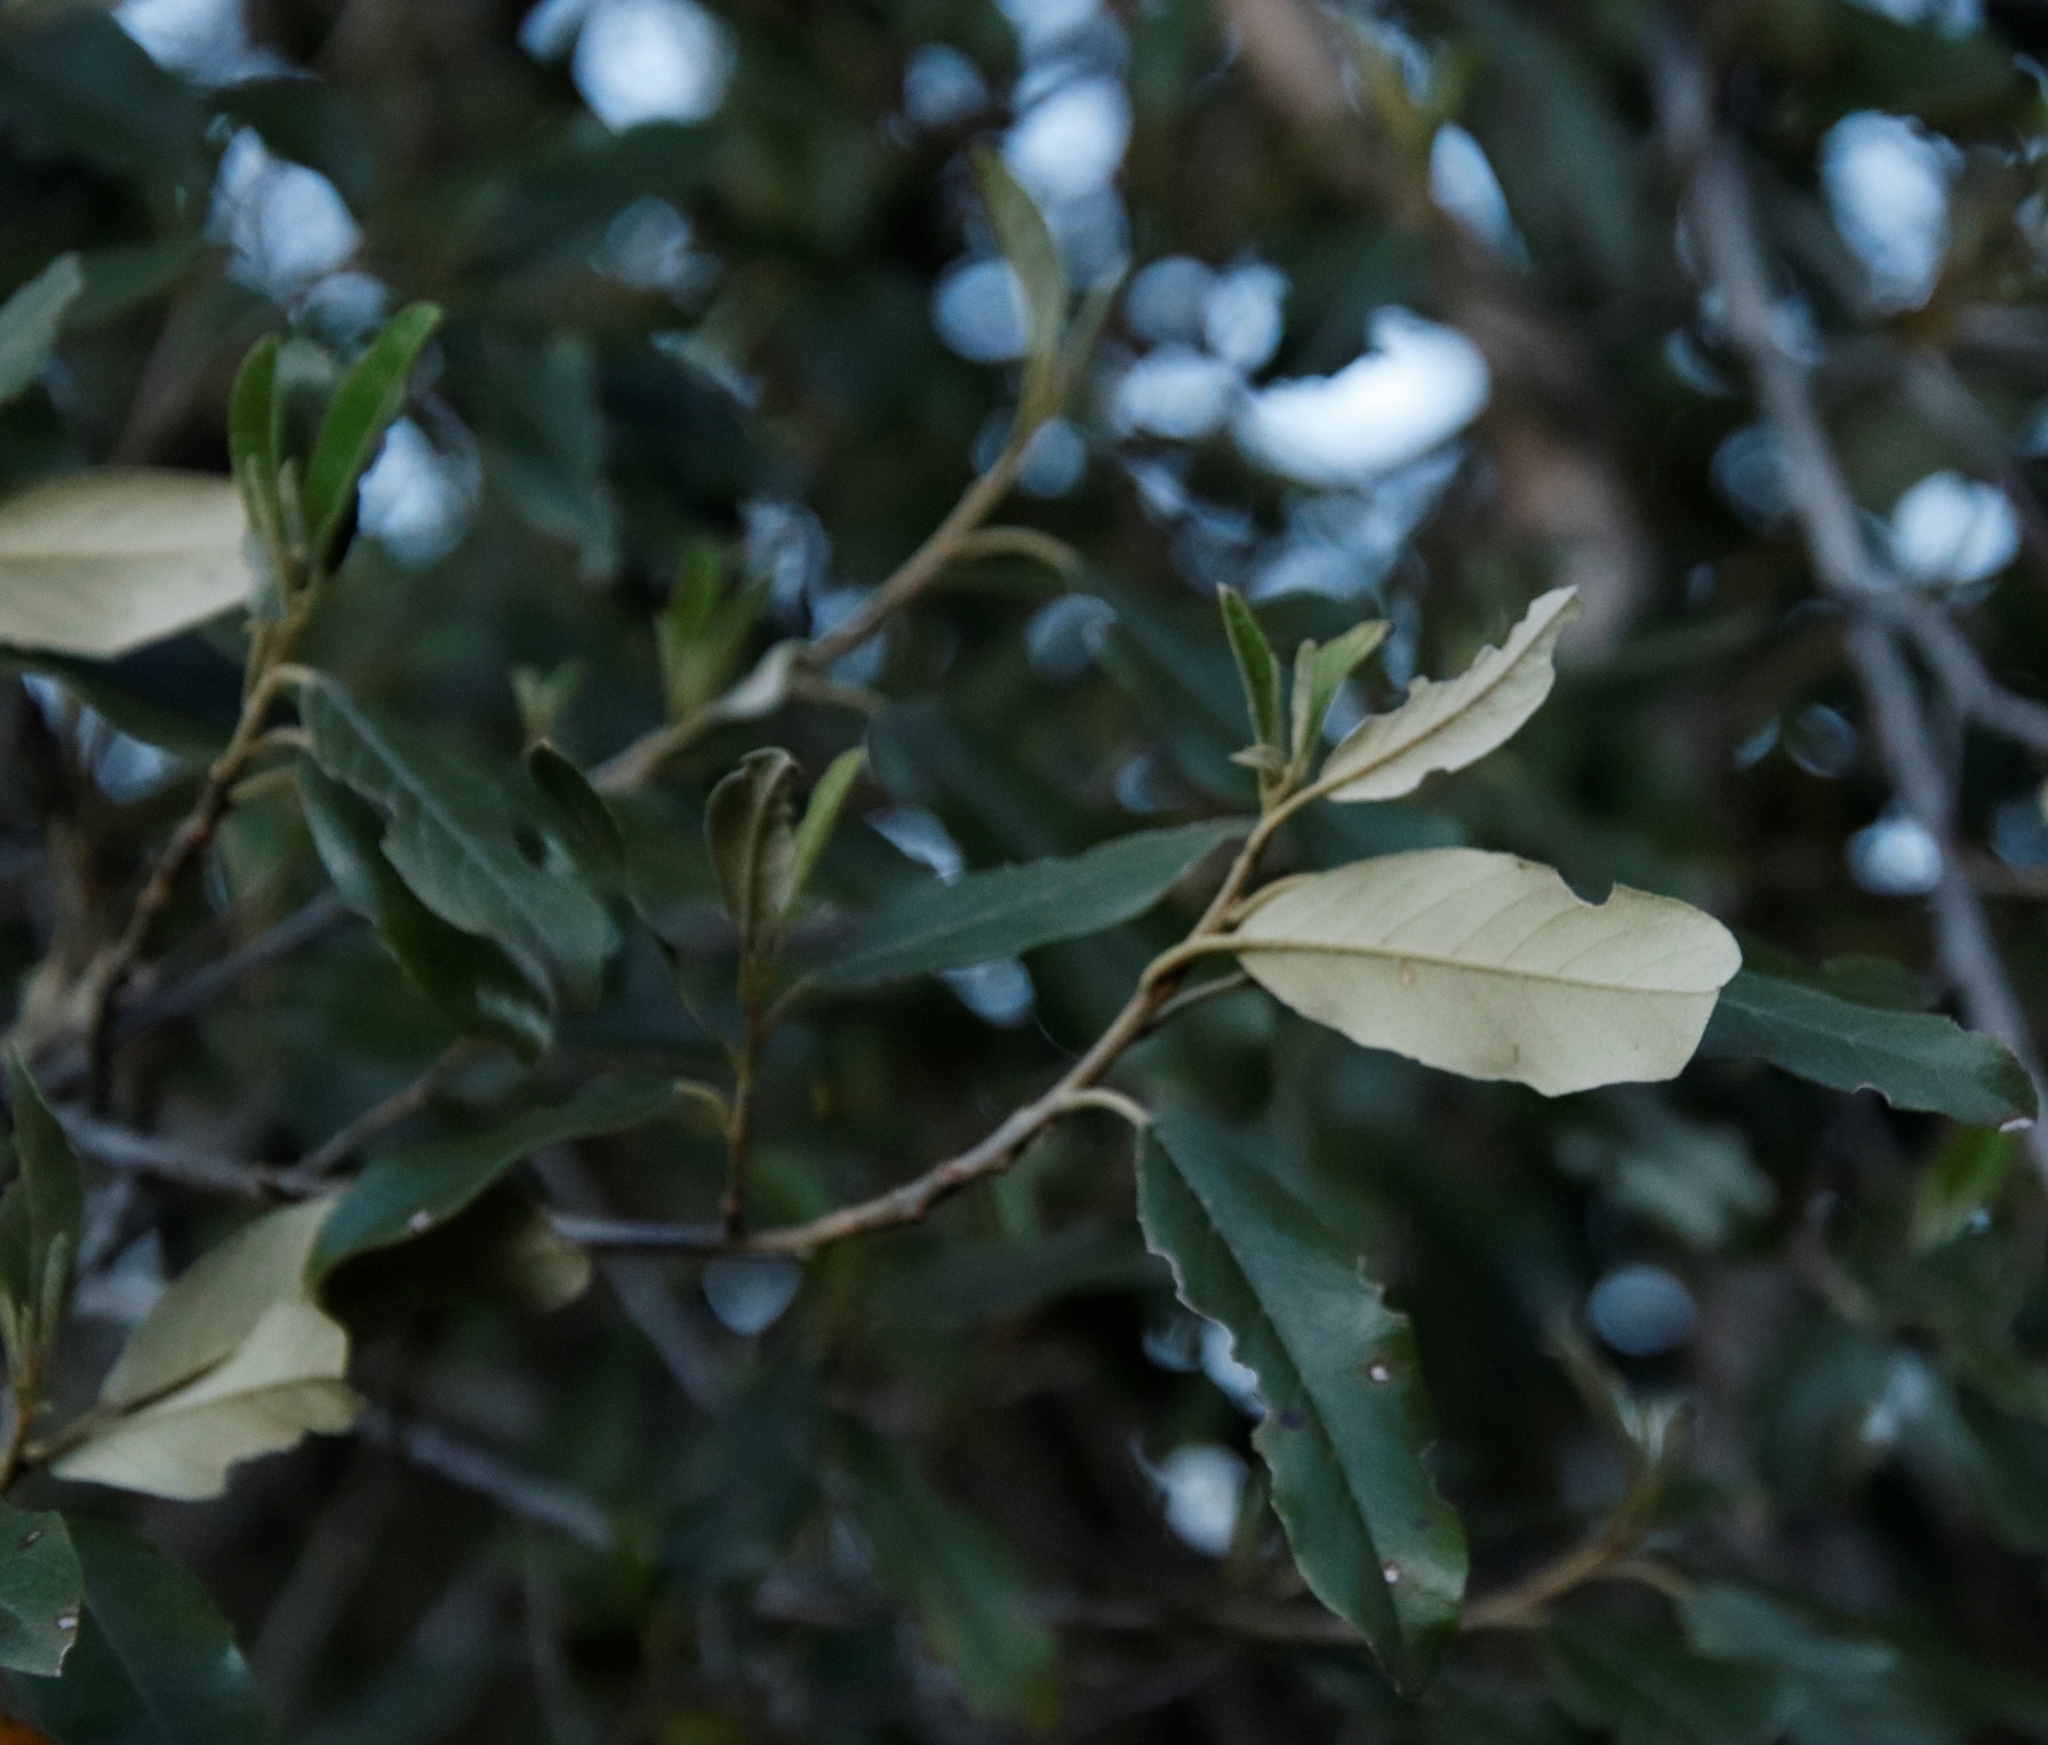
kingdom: Plantae
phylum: Tracheophyta
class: Magnoliopsida
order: Malpighiales
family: Achariaceae
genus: Kiggelaria
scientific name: Kiggelaria africana
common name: Wild peach
